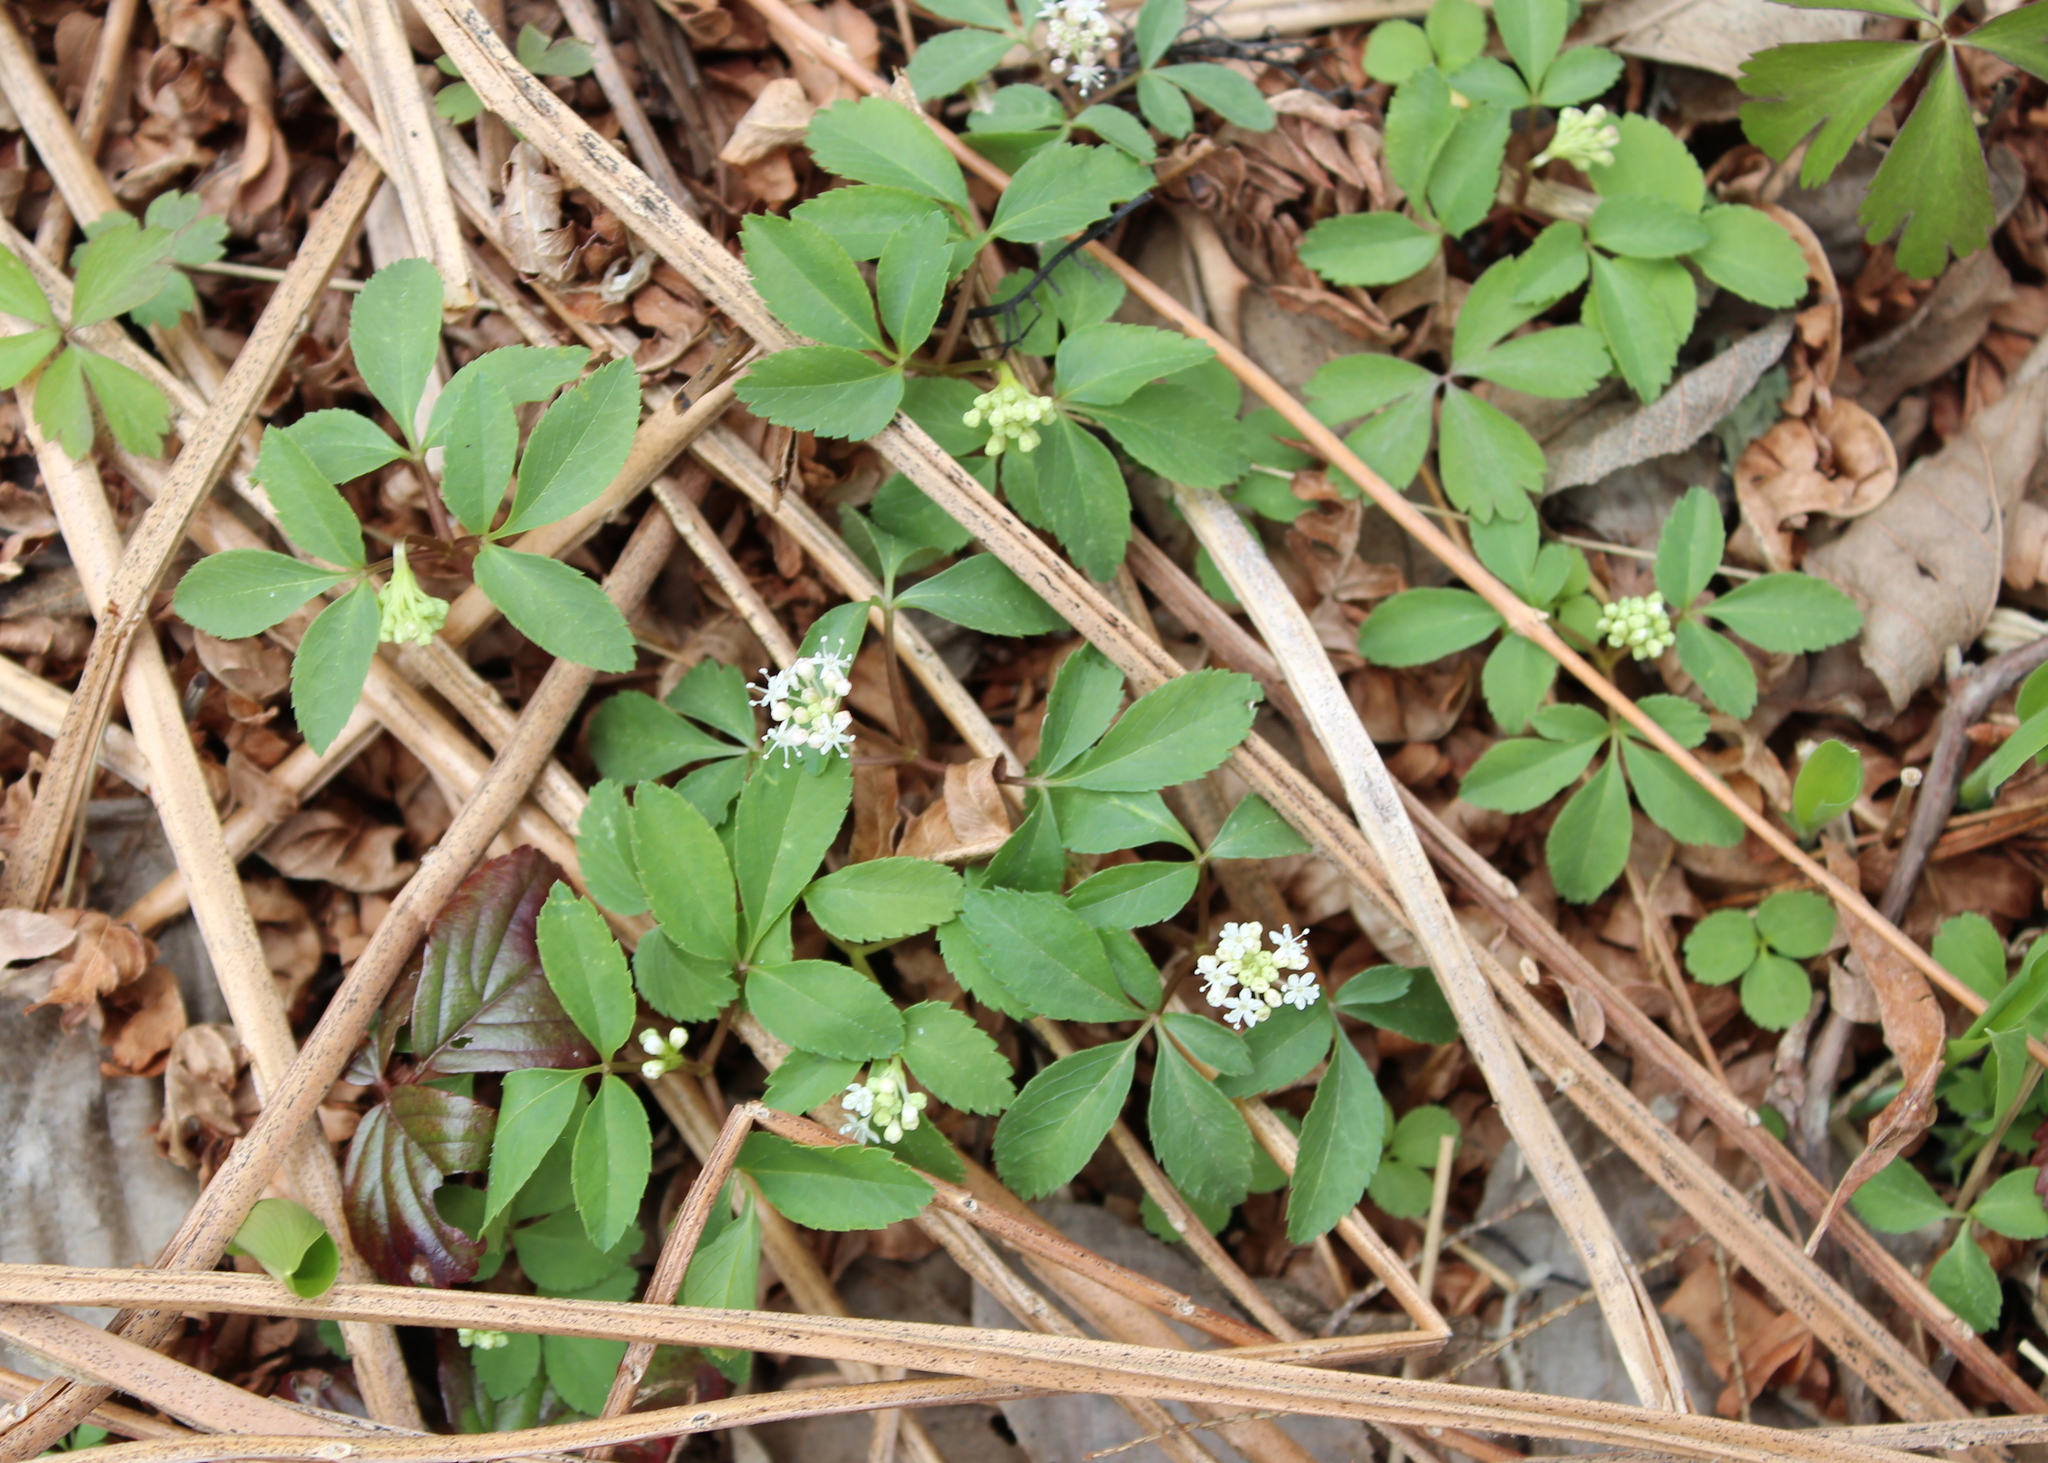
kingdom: Plantae
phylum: Tracheophyta
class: Magnoliopsida
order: Apiales
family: Araliaceae
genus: Panax
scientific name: Panax trifolius
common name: Dwarf ginseng
